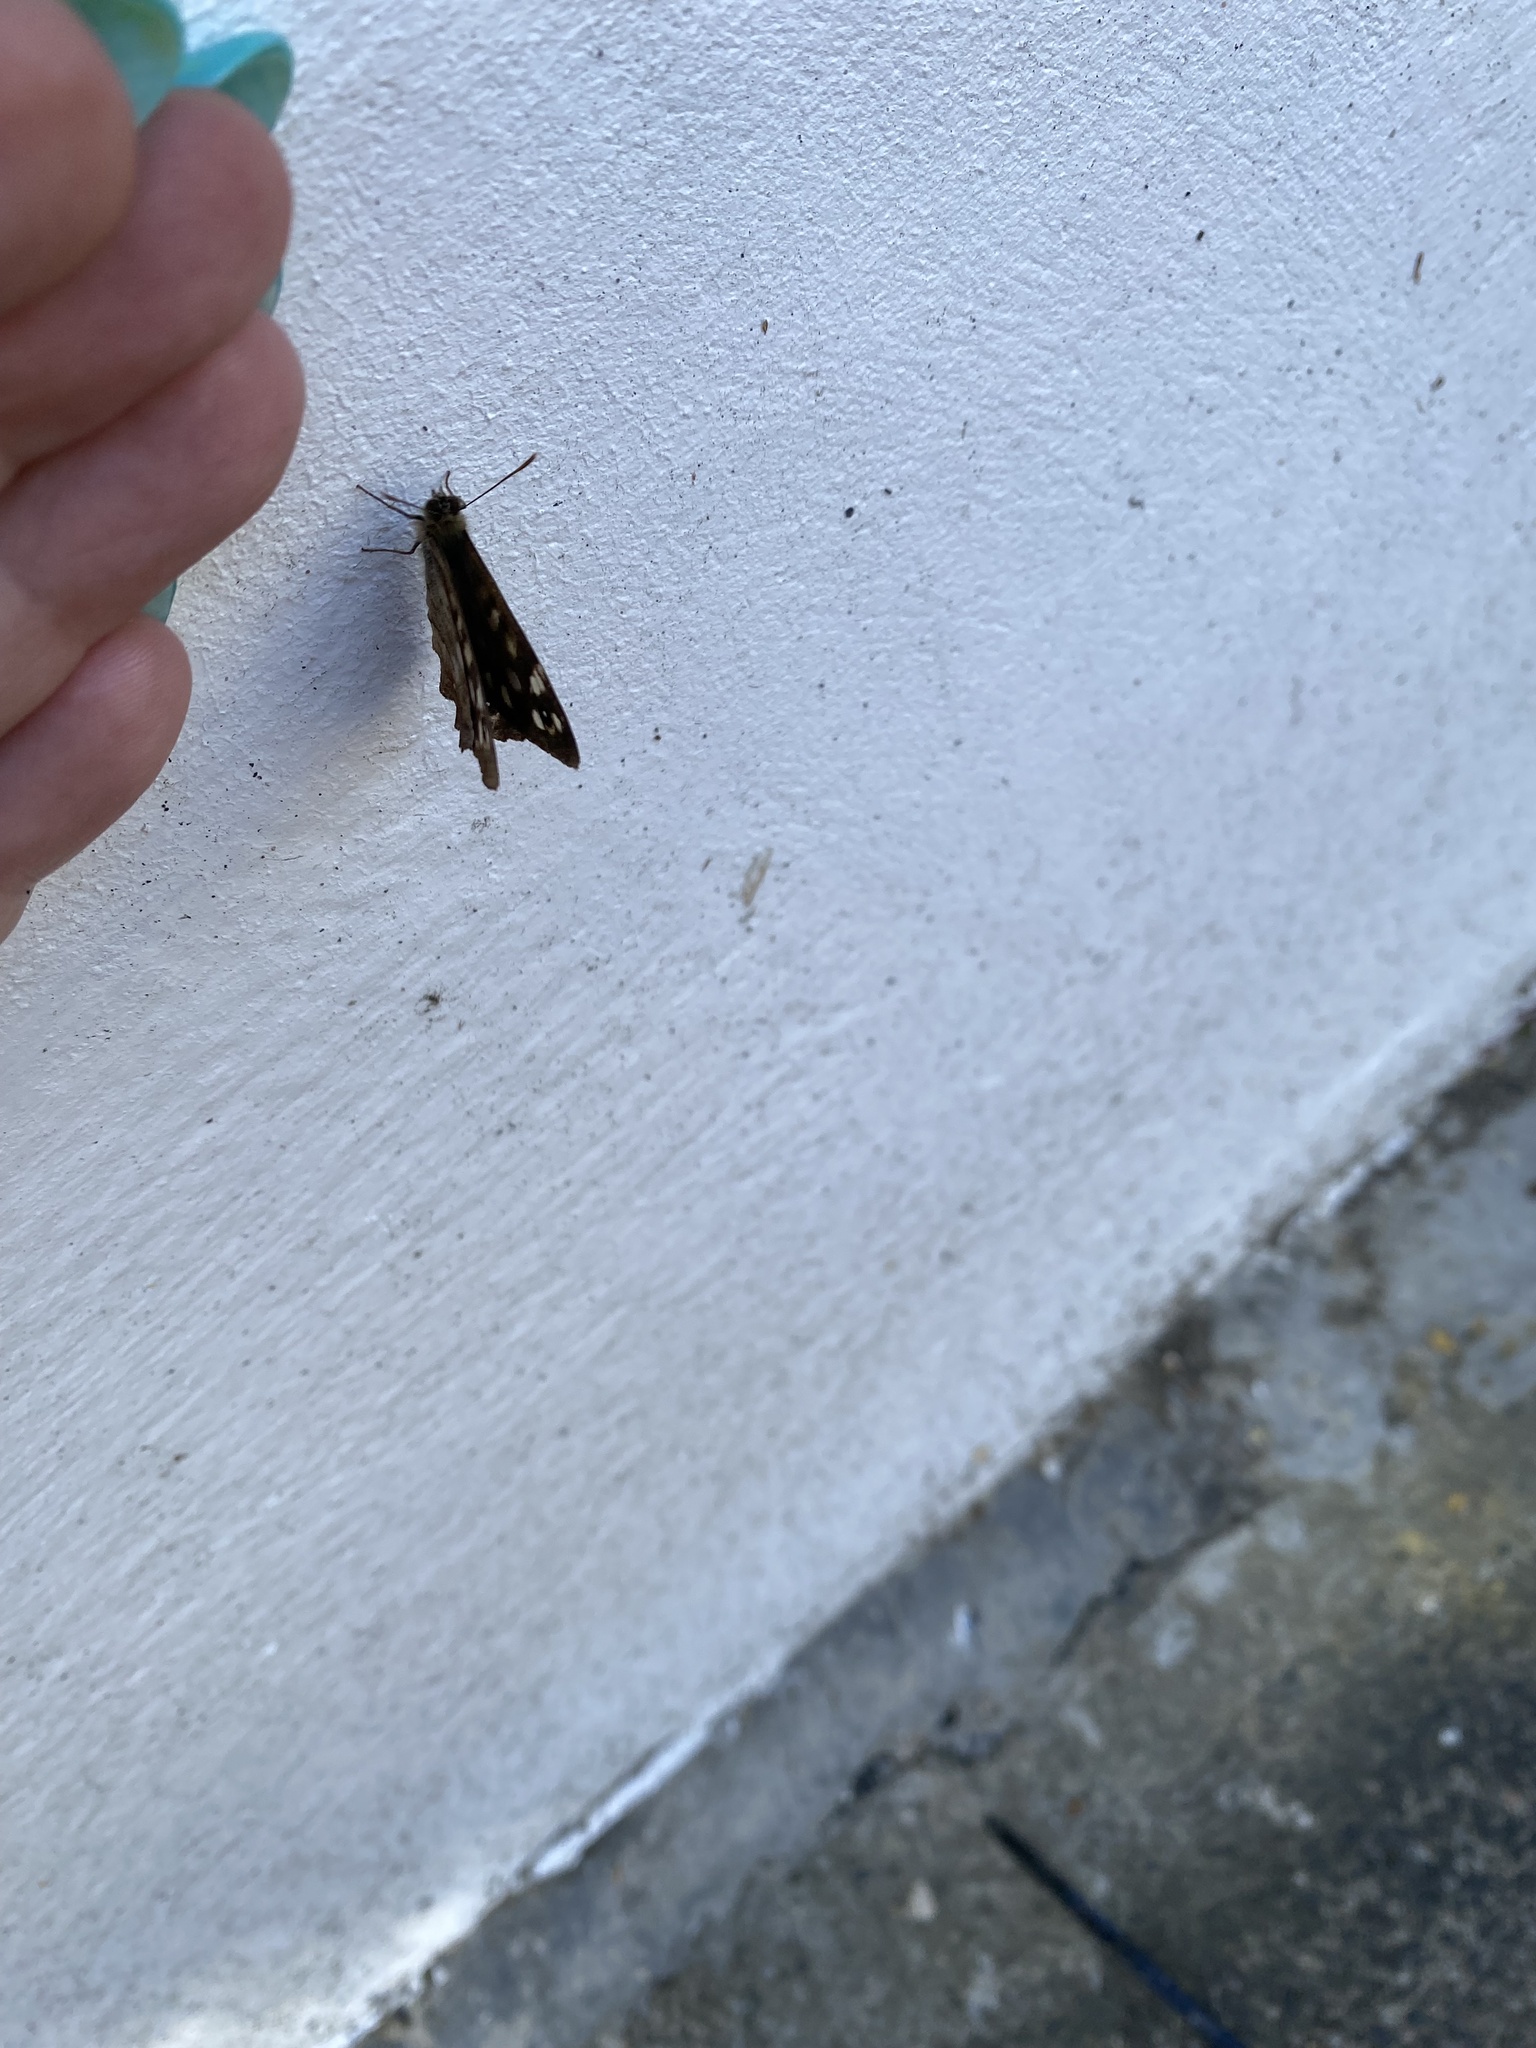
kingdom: Animalia
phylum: Arthropoda
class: Insecta
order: Lepidoptera
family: Nymphalidae
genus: Pararge
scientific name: Pararge aegeria
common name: Speckled wood
